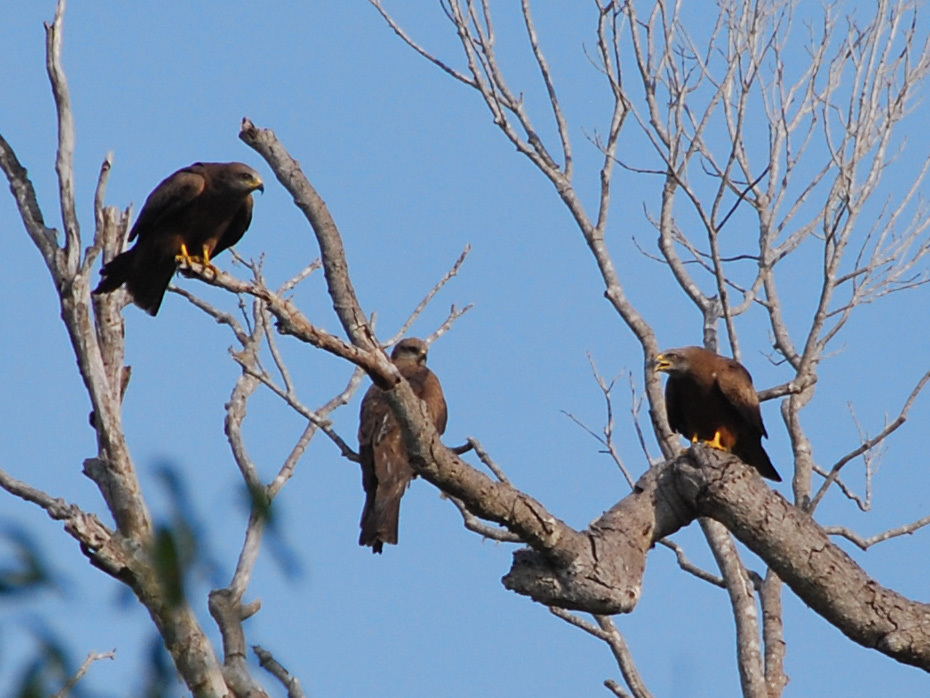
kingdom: Animalia
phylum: Chordata
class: Aves
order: Accipitriformes
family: Accipitridae
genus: Milvus
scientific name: Milvus migrans
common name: Black kite
